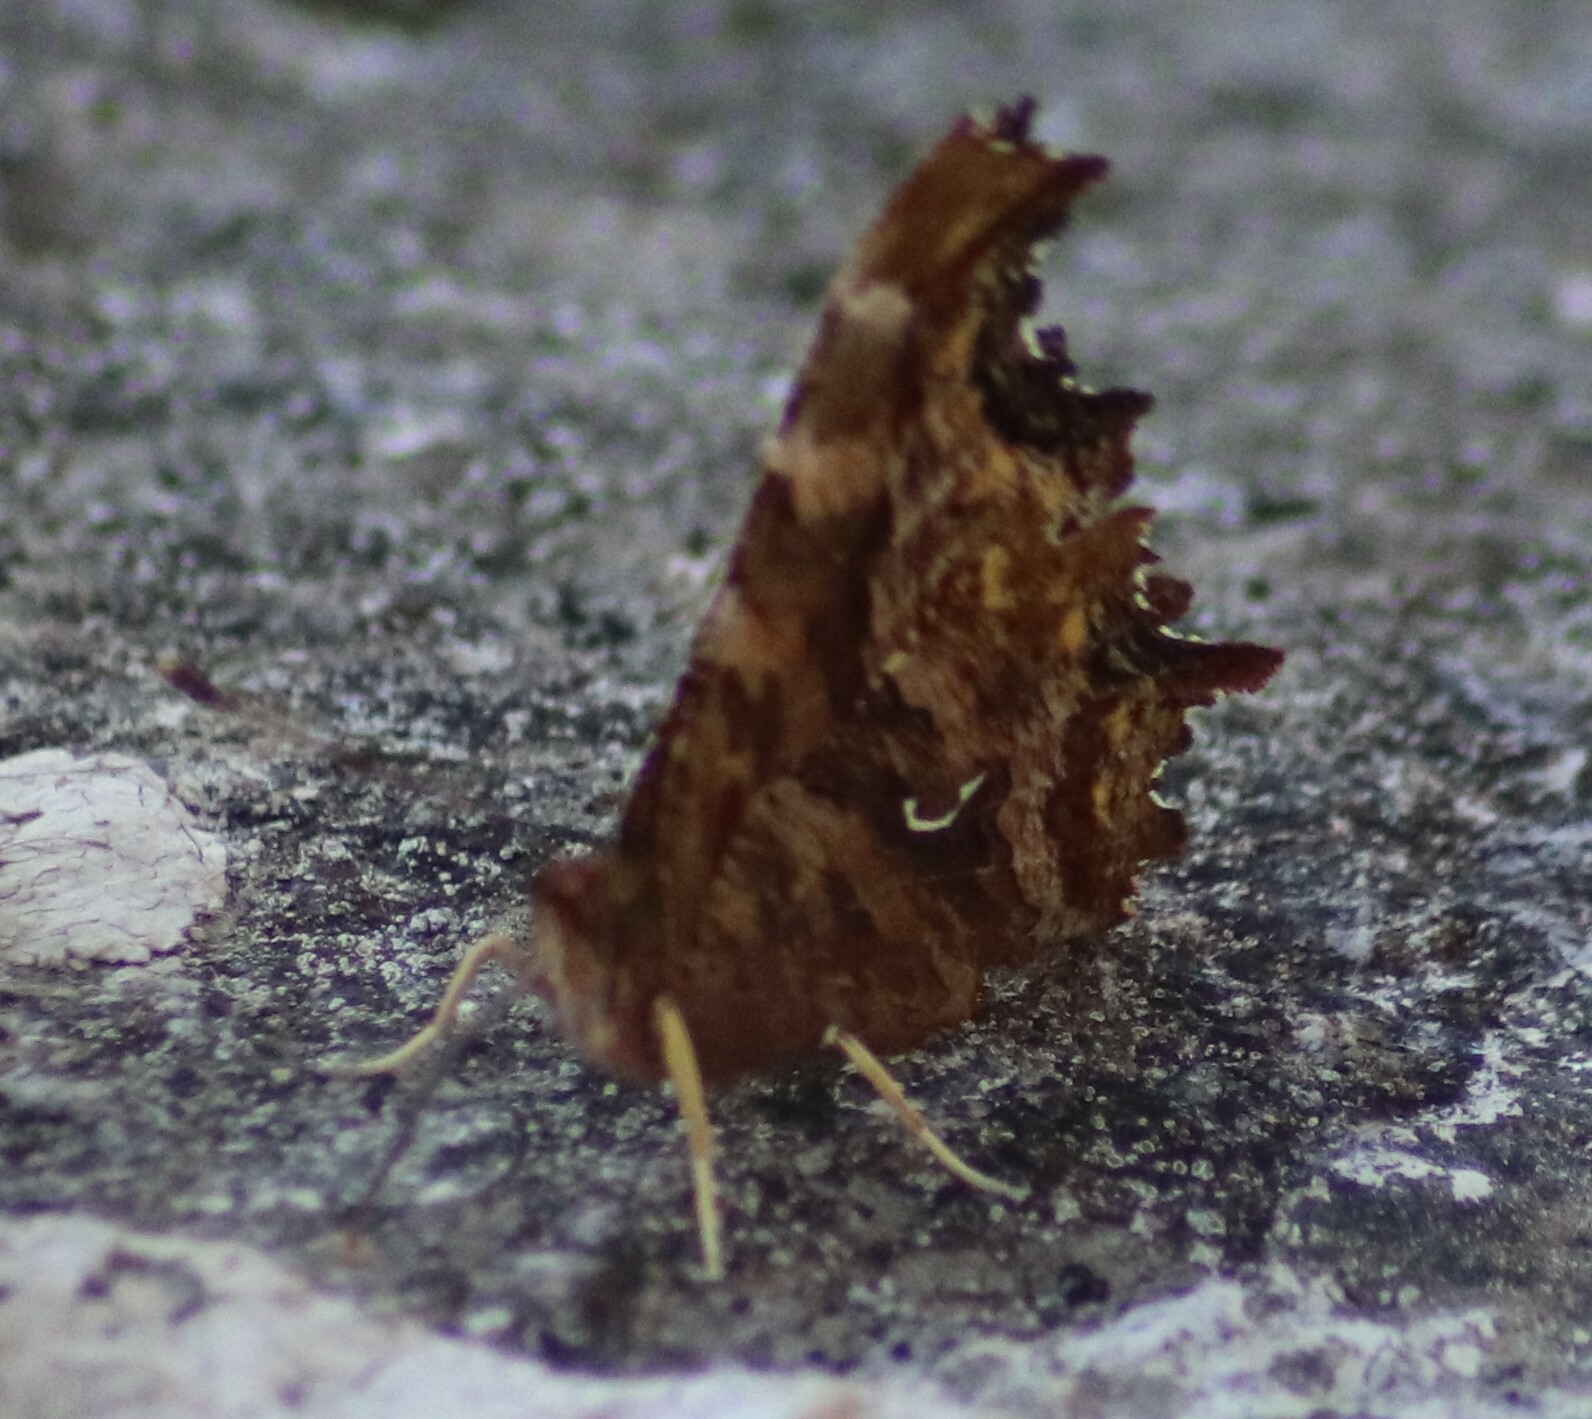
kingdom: Animalia
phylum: Arthropoda
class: Insecta
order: Lepidoptera
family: Nymphalidae
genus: Polygonia
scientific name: Polygonia satyrus
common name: Satyr angle wing
